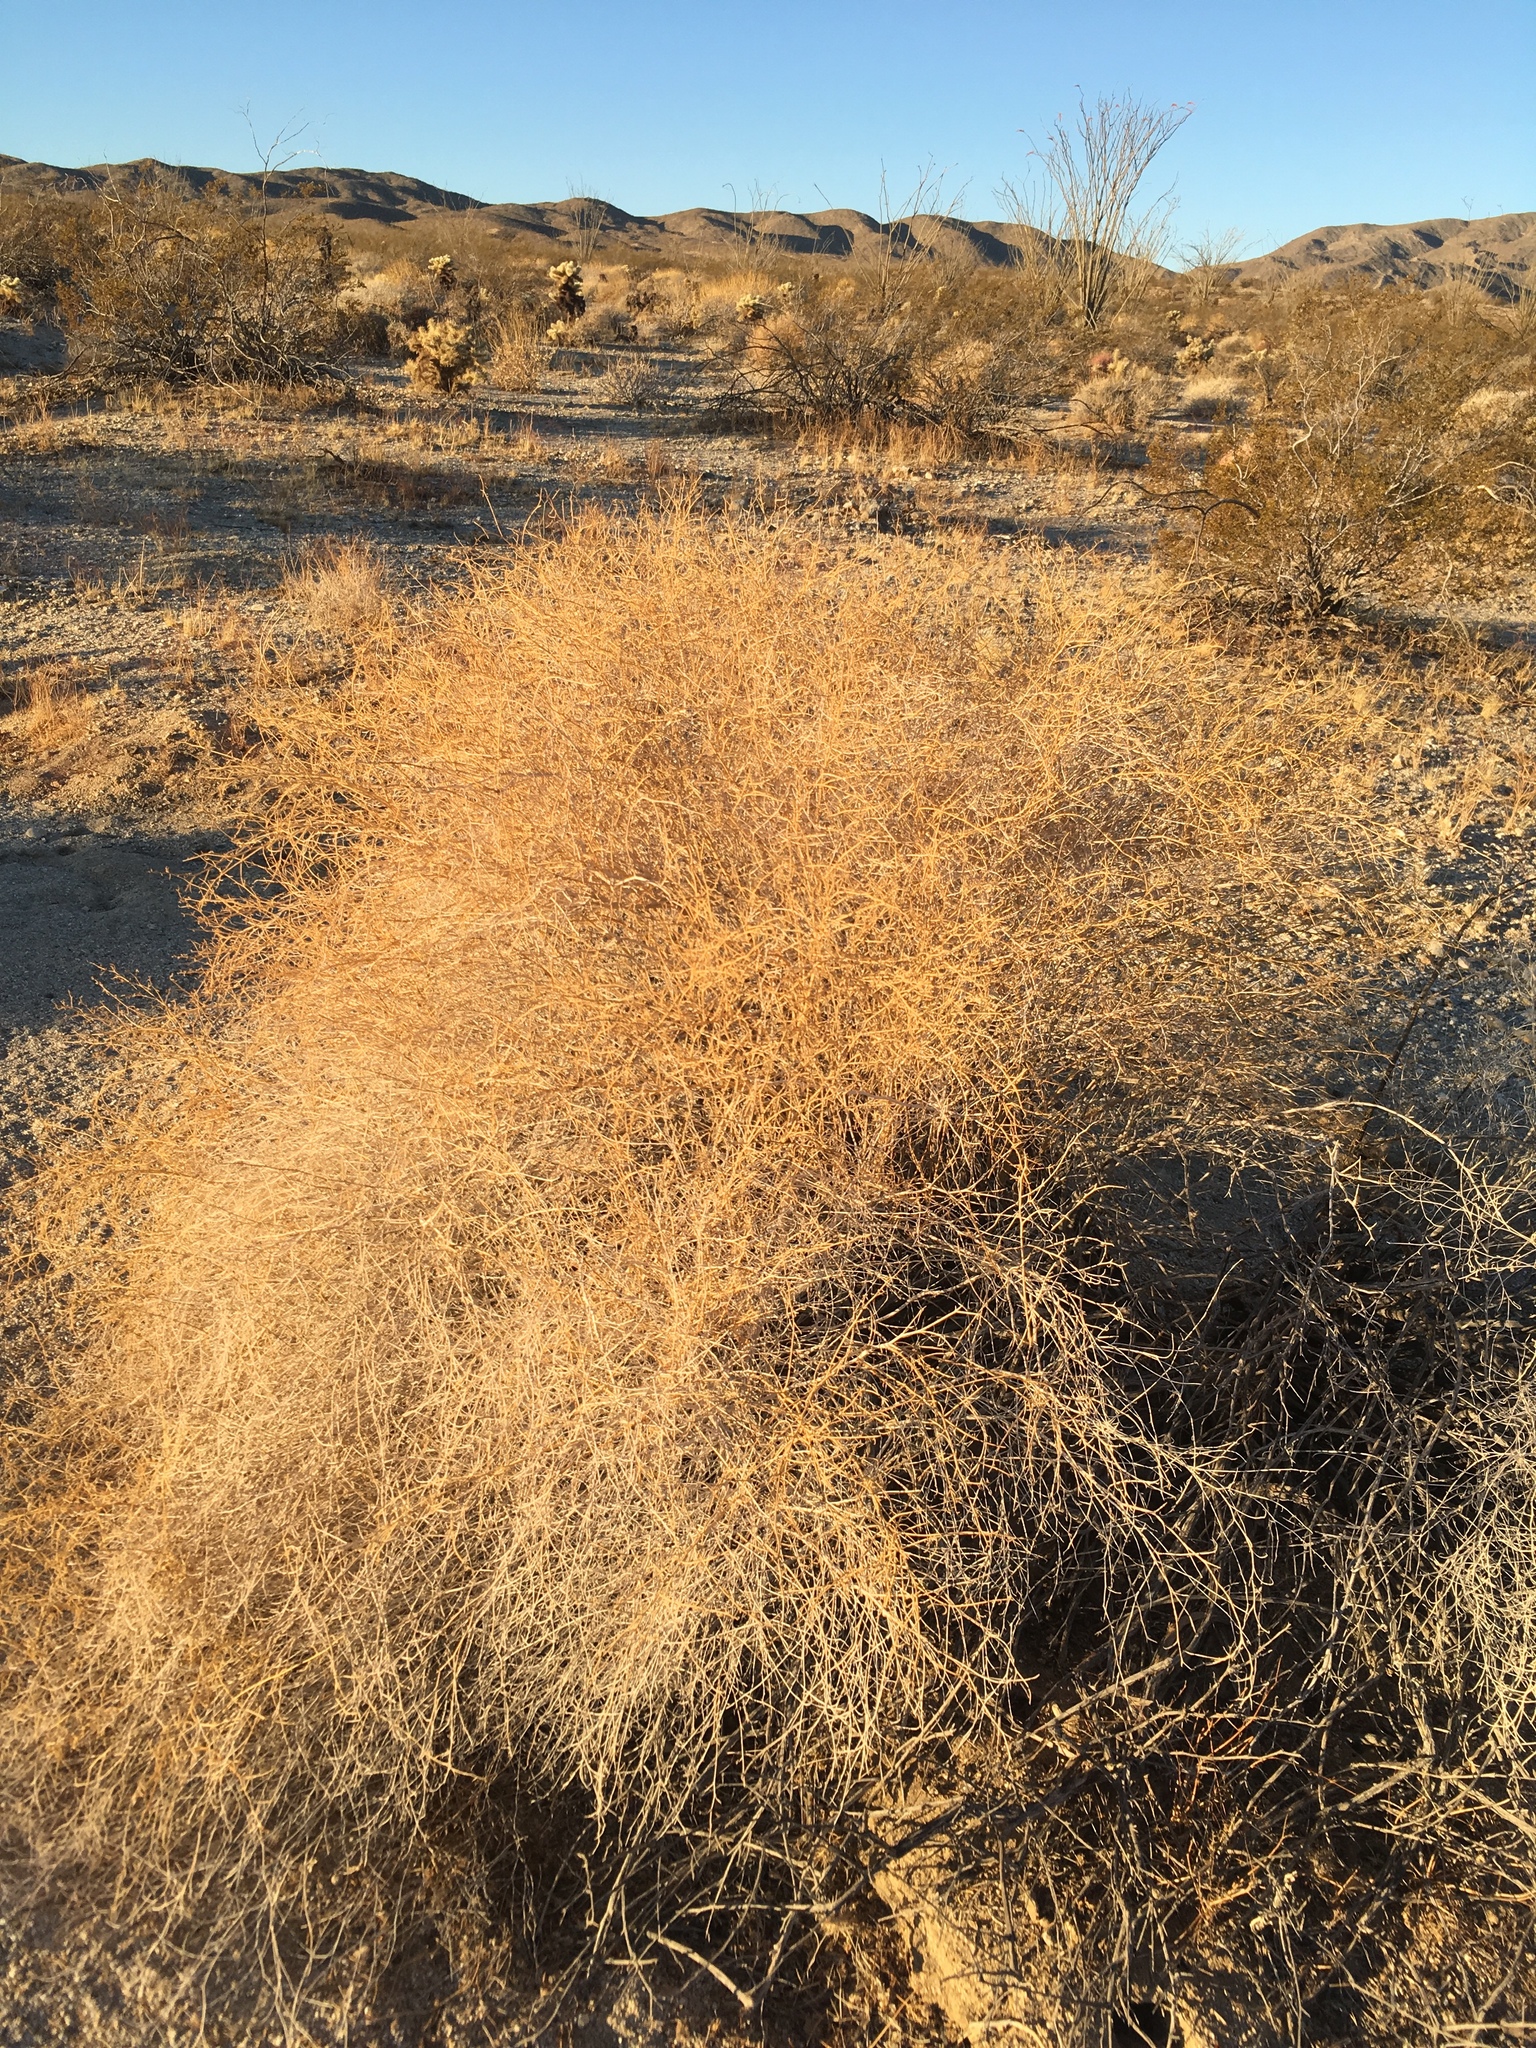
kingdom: Plantae
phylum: Tracheophyta
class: Magnoliopsida
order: Asterales
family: Asteraceae
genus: Ambrosia
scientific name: Ambrosia salsola
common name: Burrobrush
